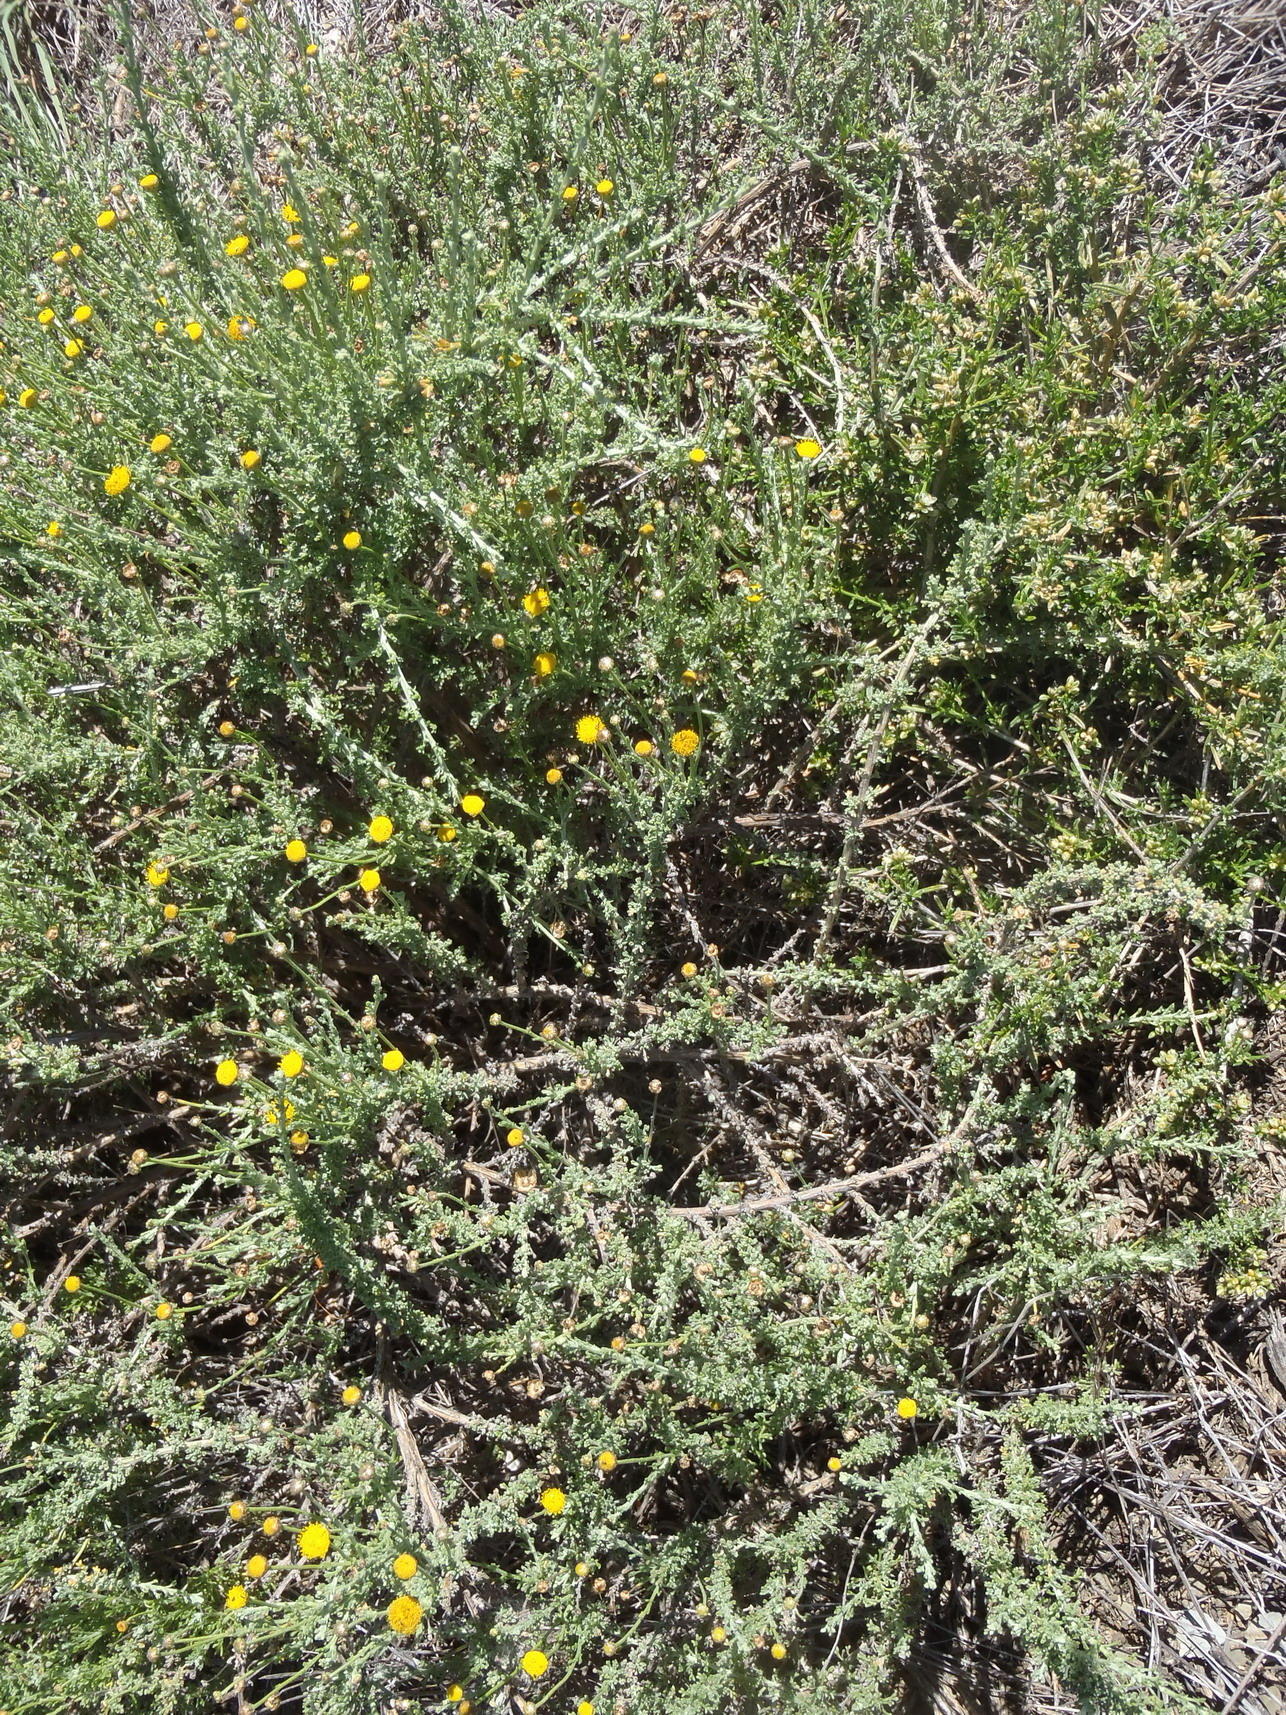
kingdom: Plantae
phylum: Tracheophyta
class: Magnoliopsida
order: Asterales
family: Asteraceae
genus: Pentzia
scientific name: Pentzia incana
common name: African sheepbush
